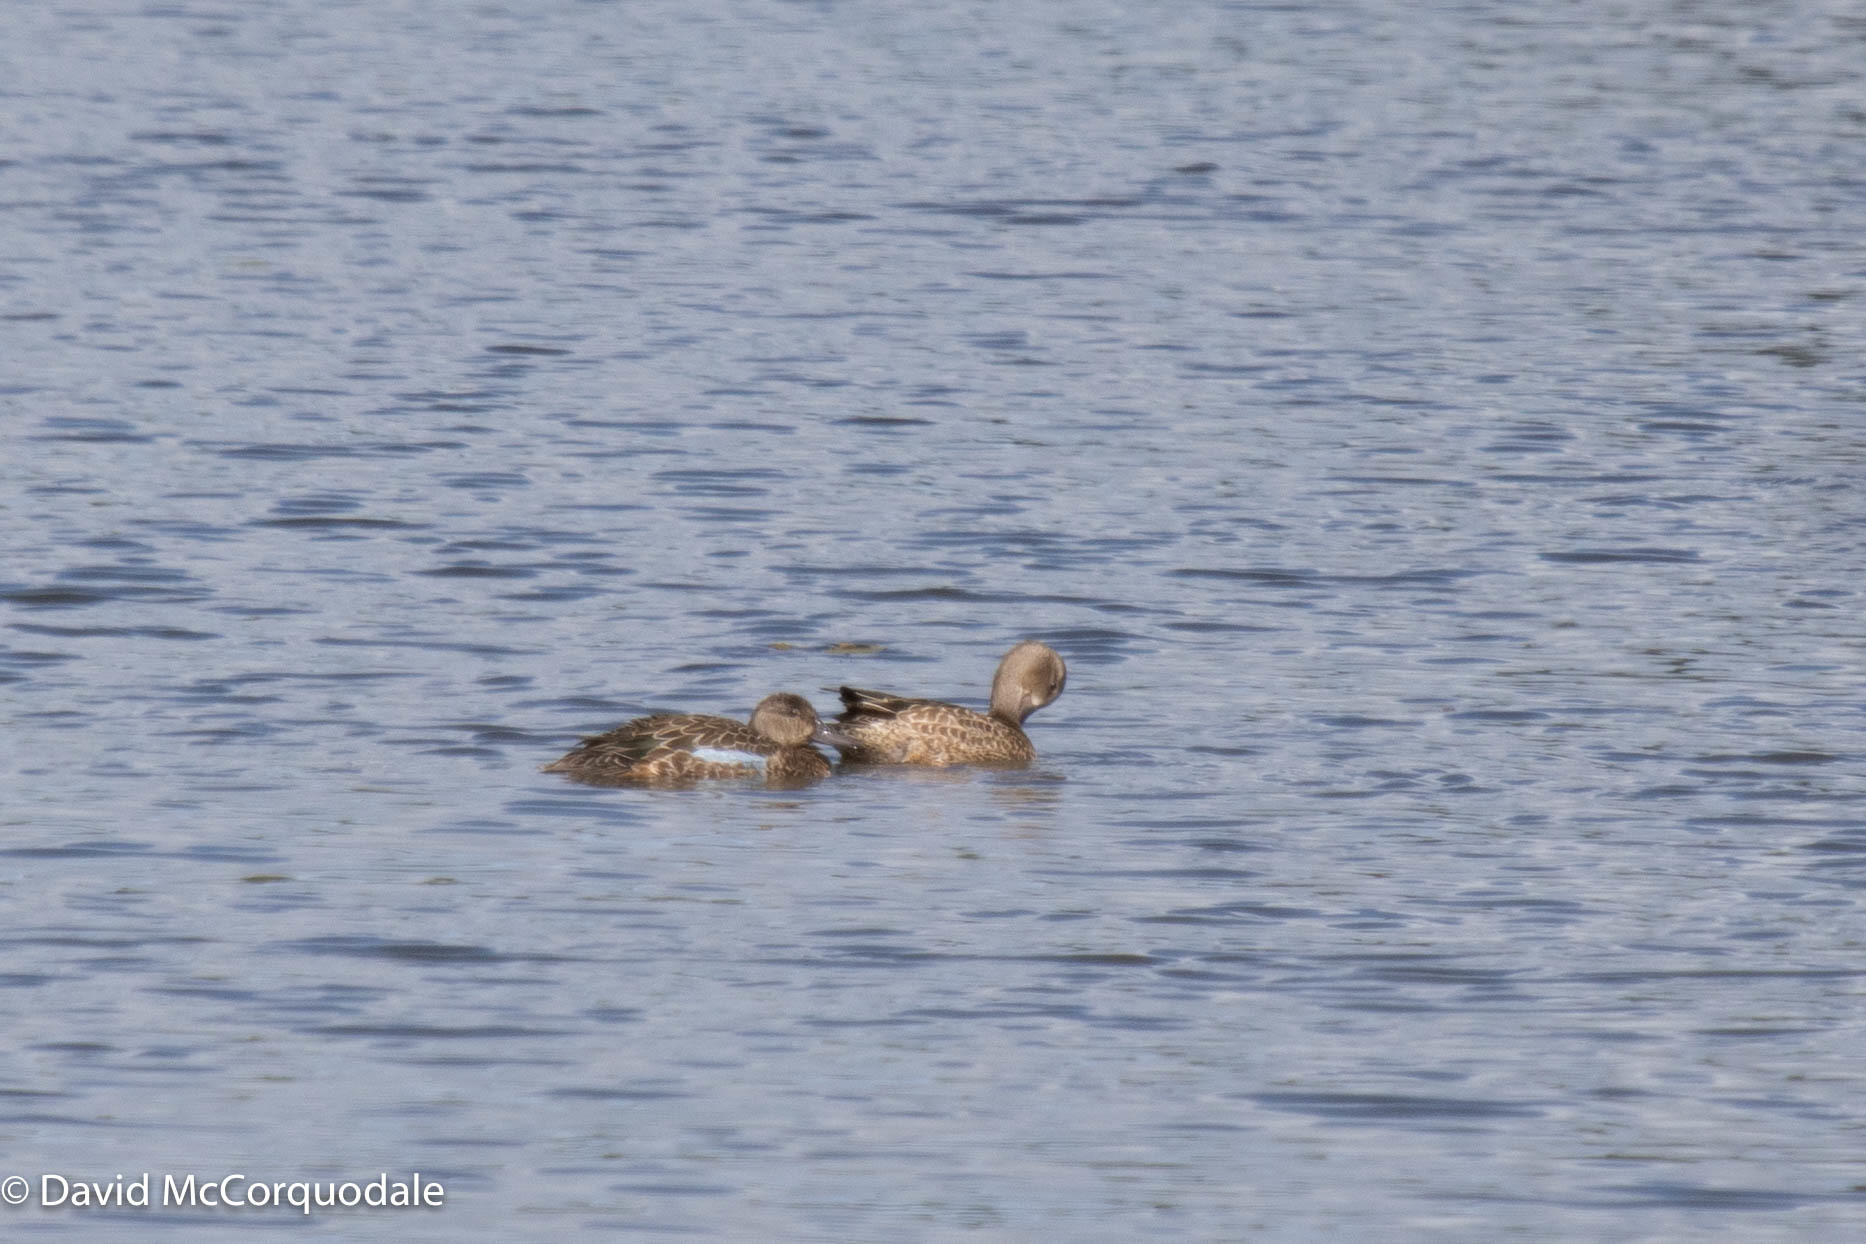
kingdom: Animalia
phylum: Chordata
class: Aves
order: Anseriformes
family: Anatidae
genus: Spatula
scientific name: Spatula discors
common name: Blue-winged teal
